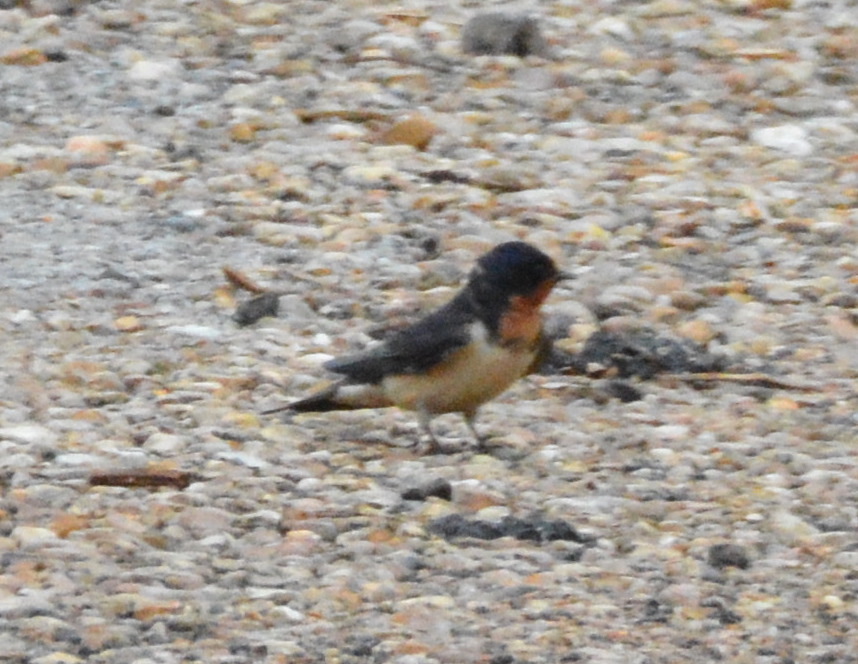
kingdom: Animalia
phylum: Chordata
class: Aves
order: Passeriformes
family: Hirundinidae
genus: Hirundo
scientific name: Hirundo rustica
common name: Barn swallow
